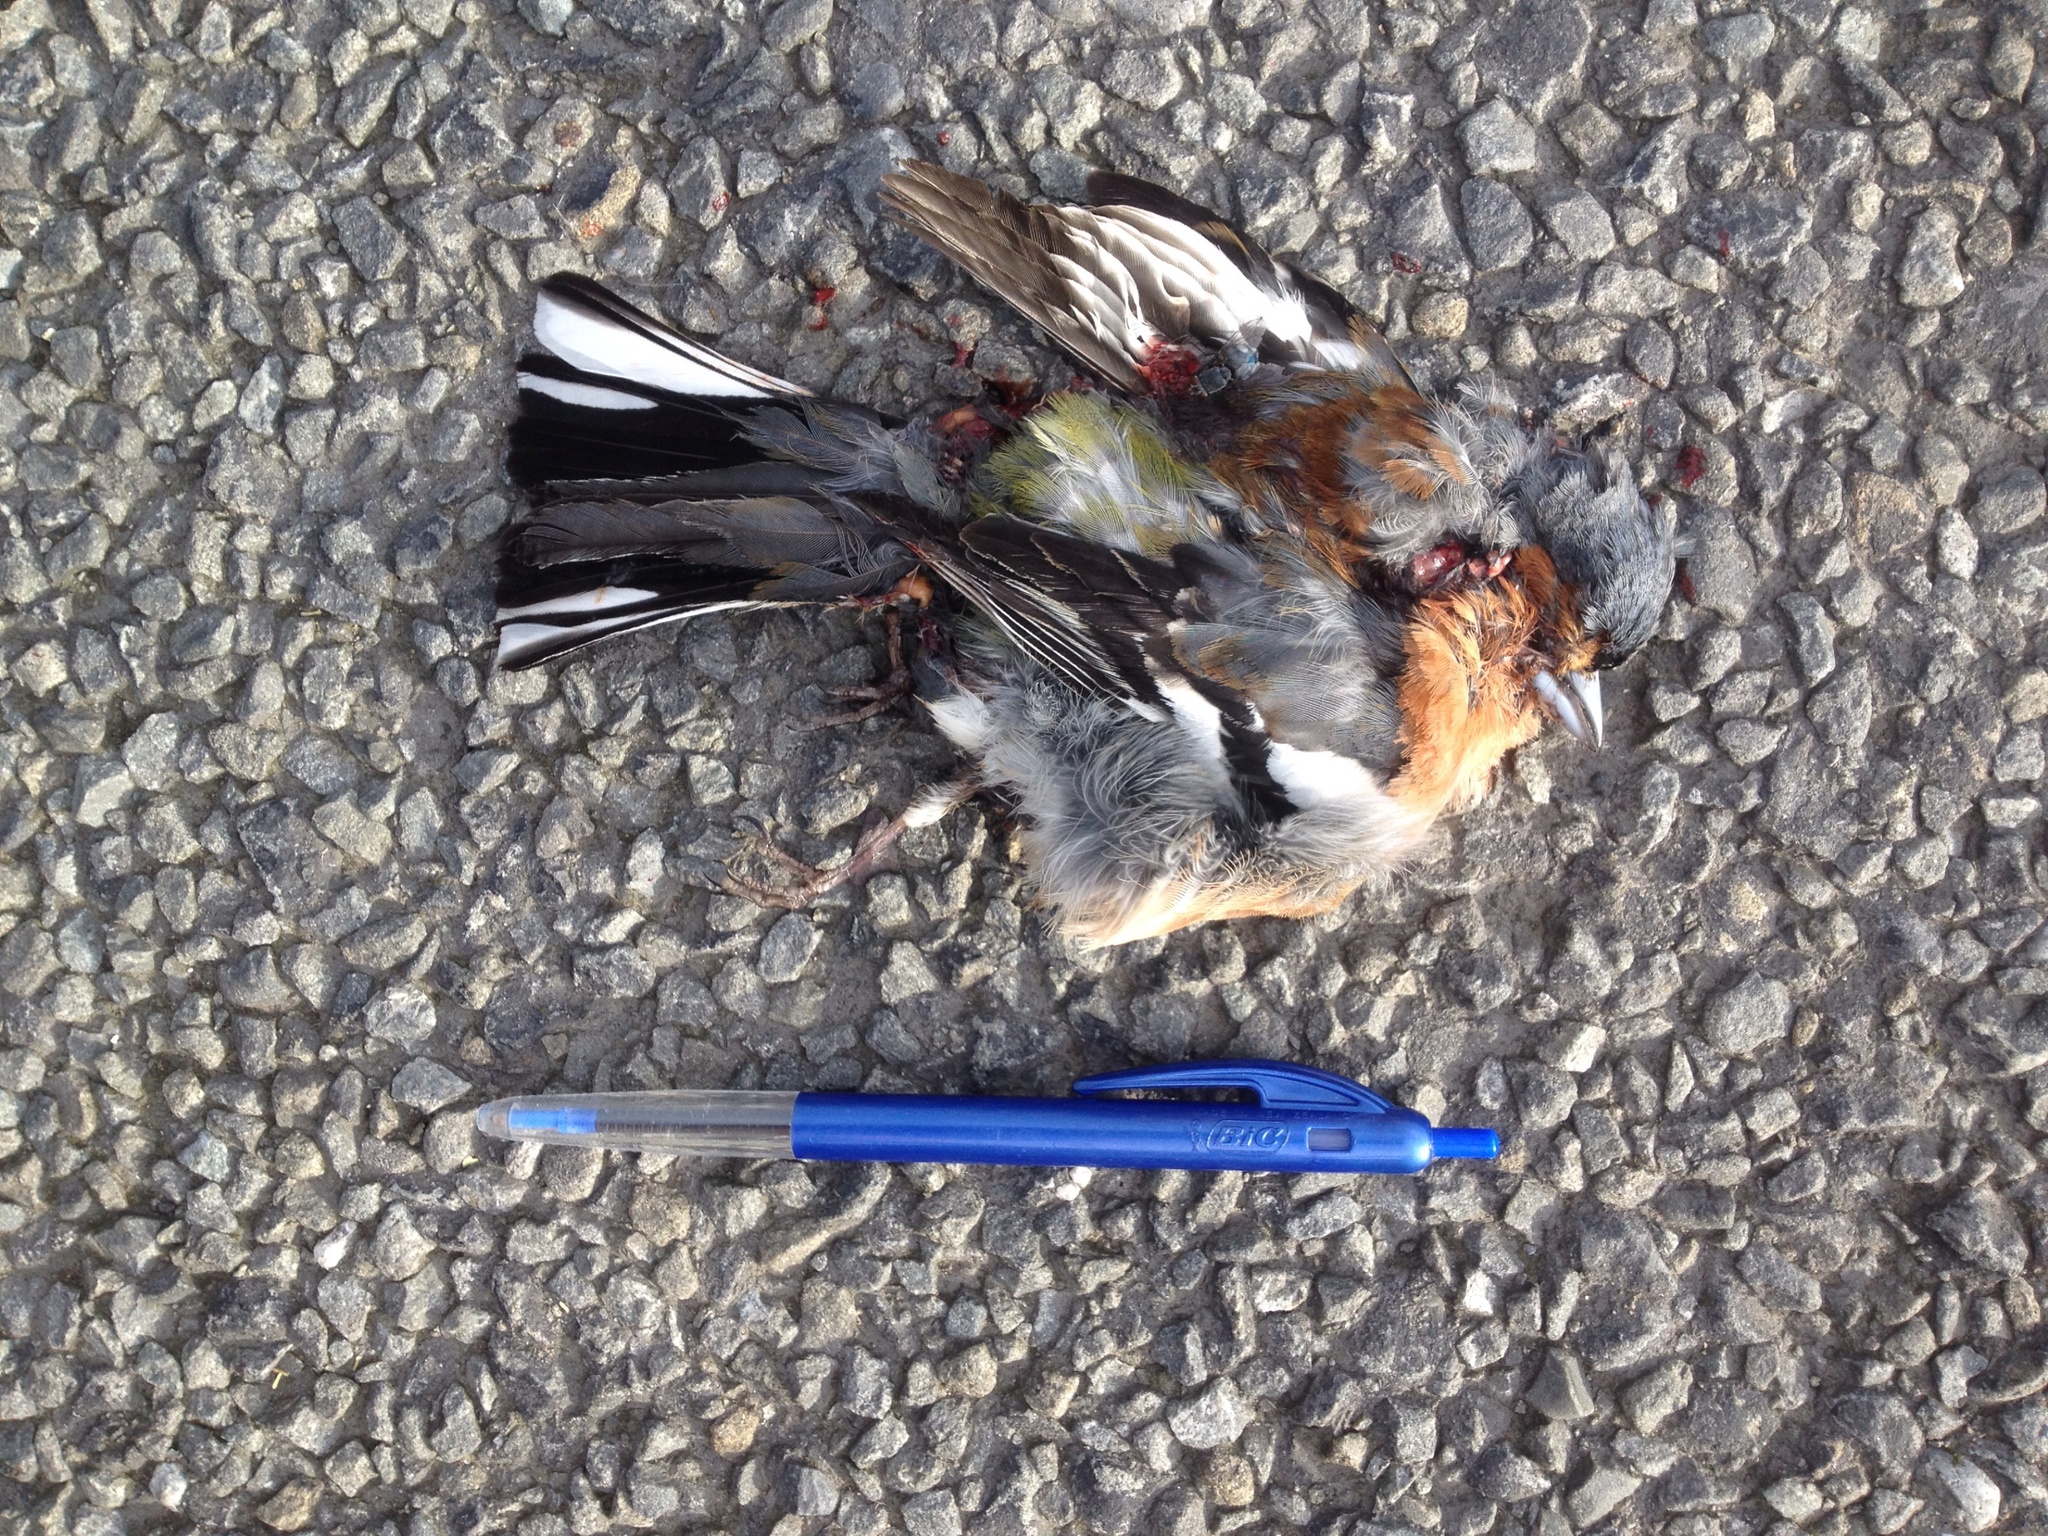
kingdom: Animalia
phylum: Chordata
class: Aves
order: Passeriformes
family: Fringillidae
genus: Fringilla
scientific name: Fringilla coelebs
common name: Common chaffinch
